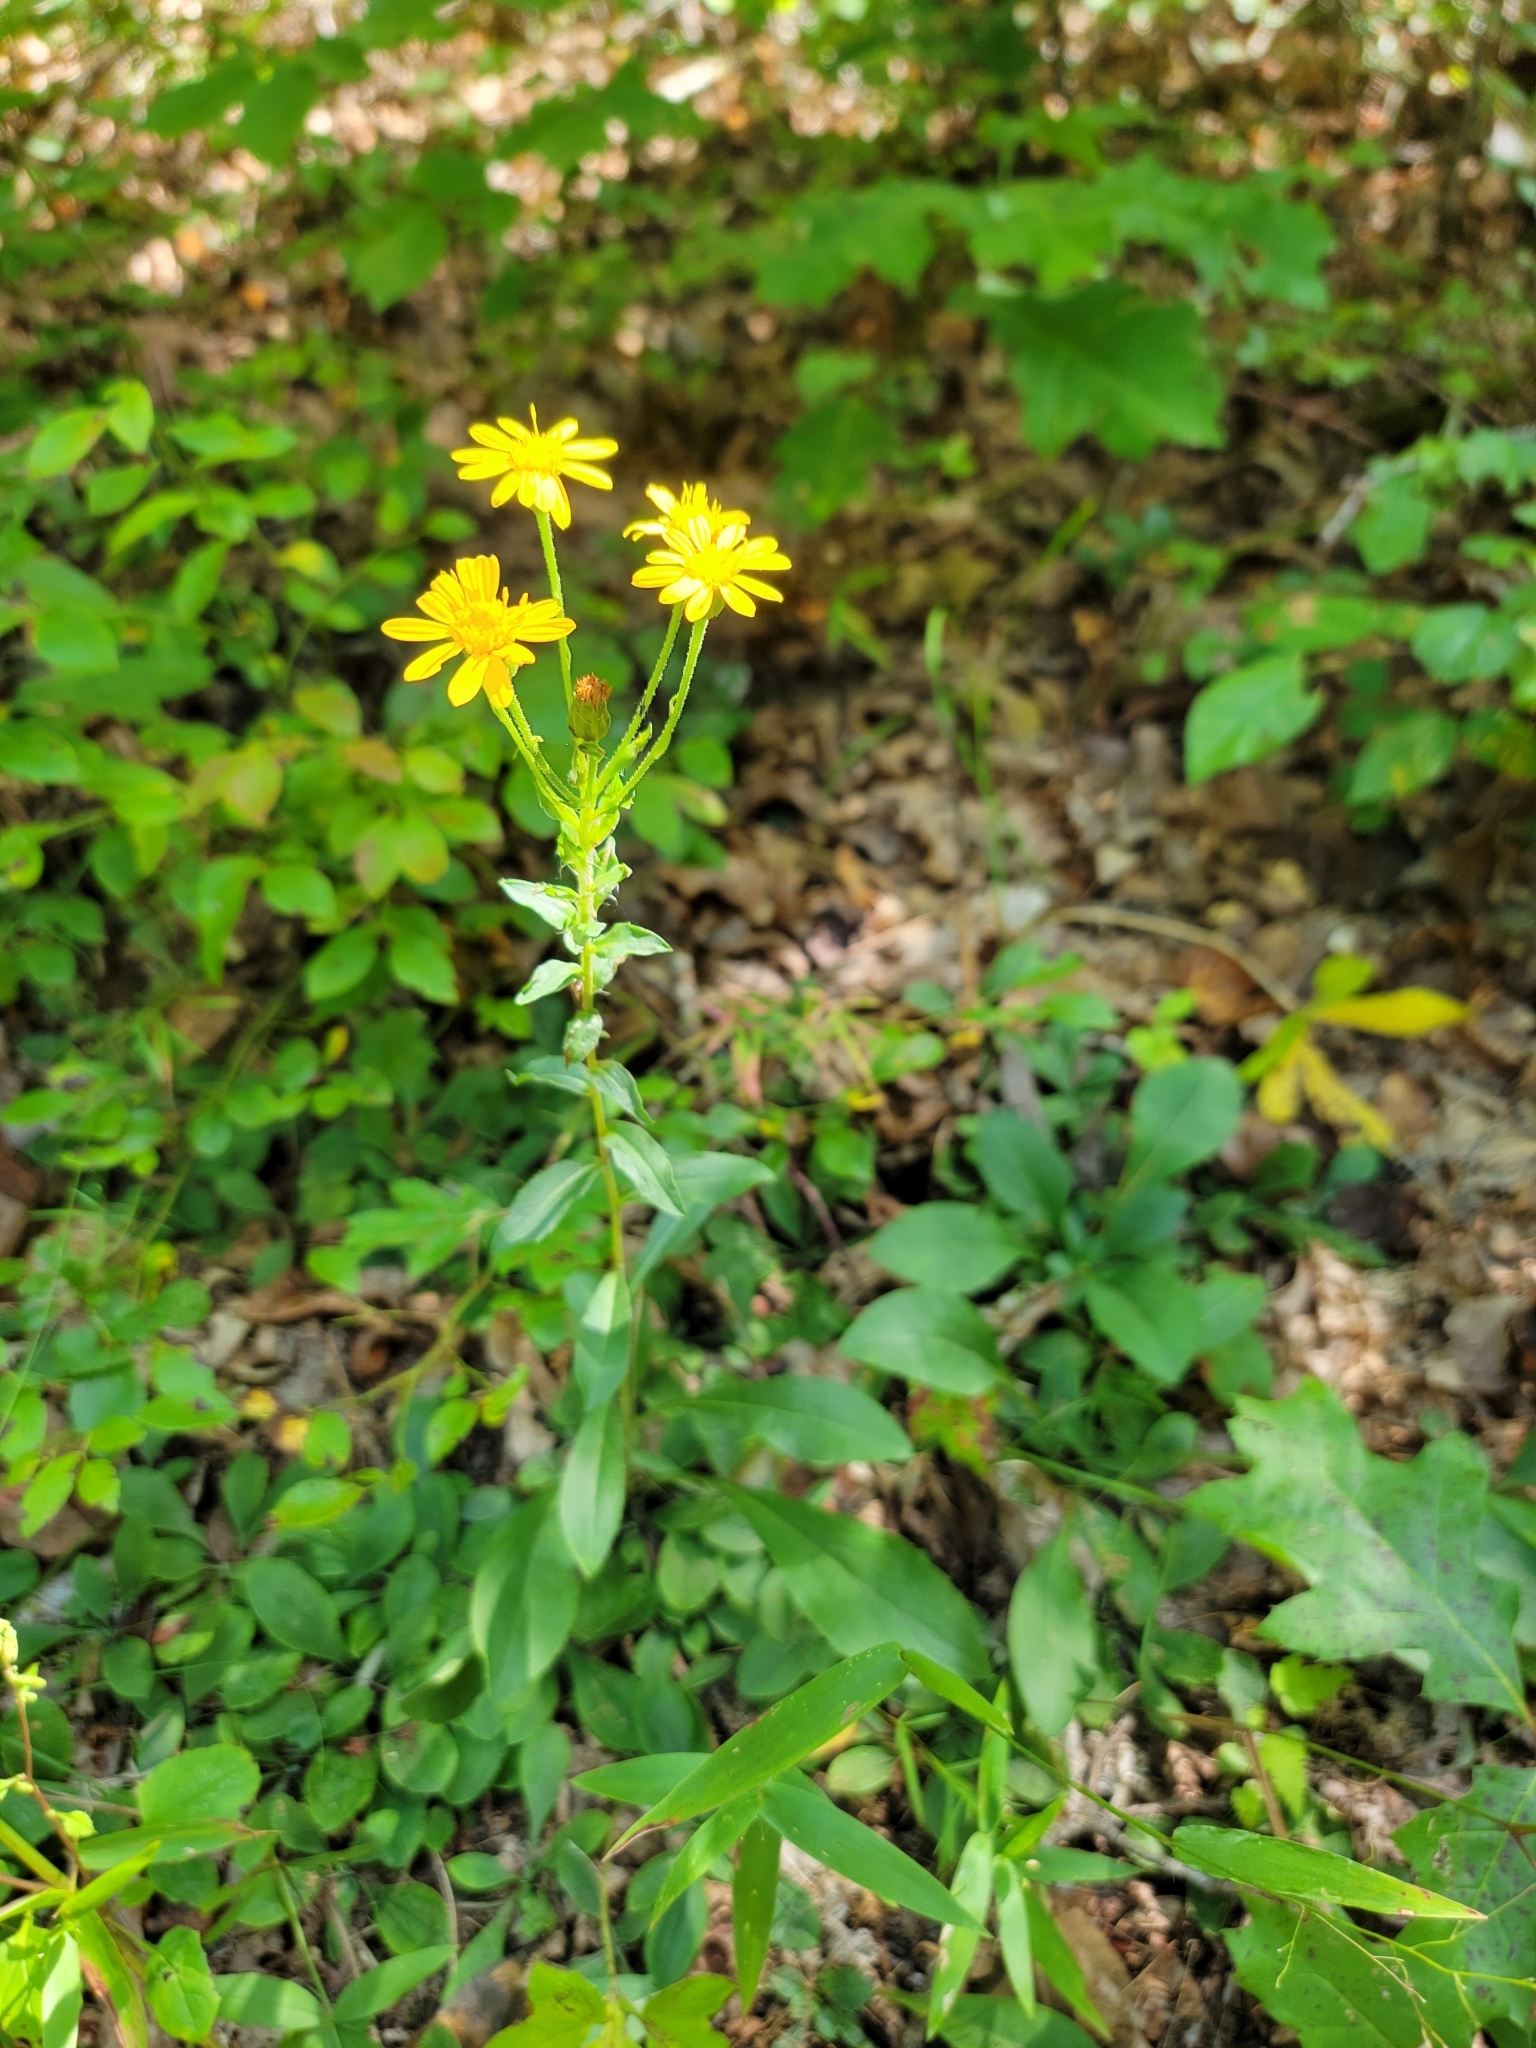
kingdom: Plantae
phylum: Tracheophyta
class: Magnoliopsida
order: Asterales
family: Asteraceae
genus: Chrysopsis
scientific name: Chrysopsis mariana
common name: Maryland golden-aster
